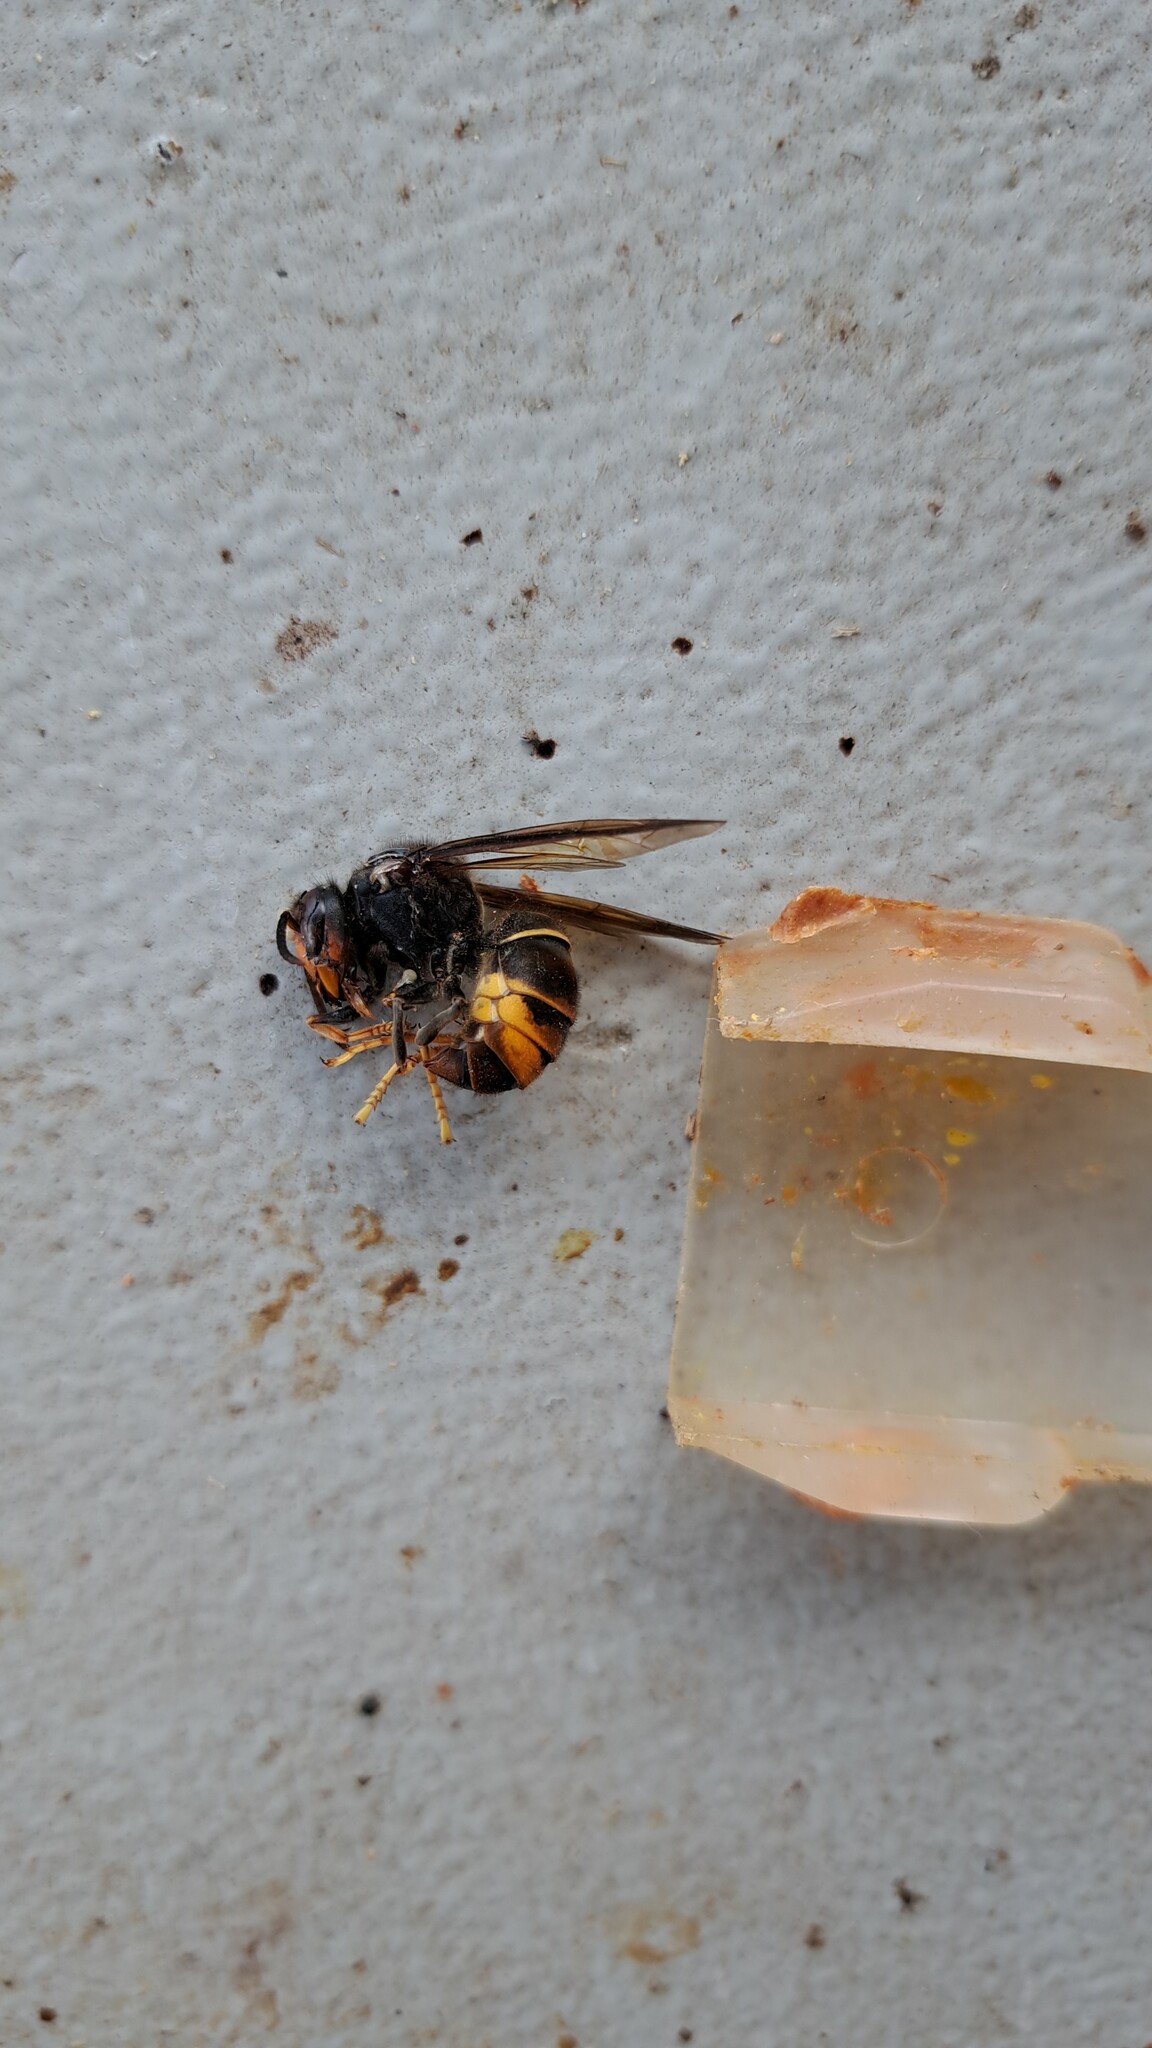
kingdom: Animalia
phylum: Arthropoda
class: Insecta
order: Hymenoptera
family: Vespidae
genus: Vespa
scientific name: Vespa velutina
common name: Asian hornet
